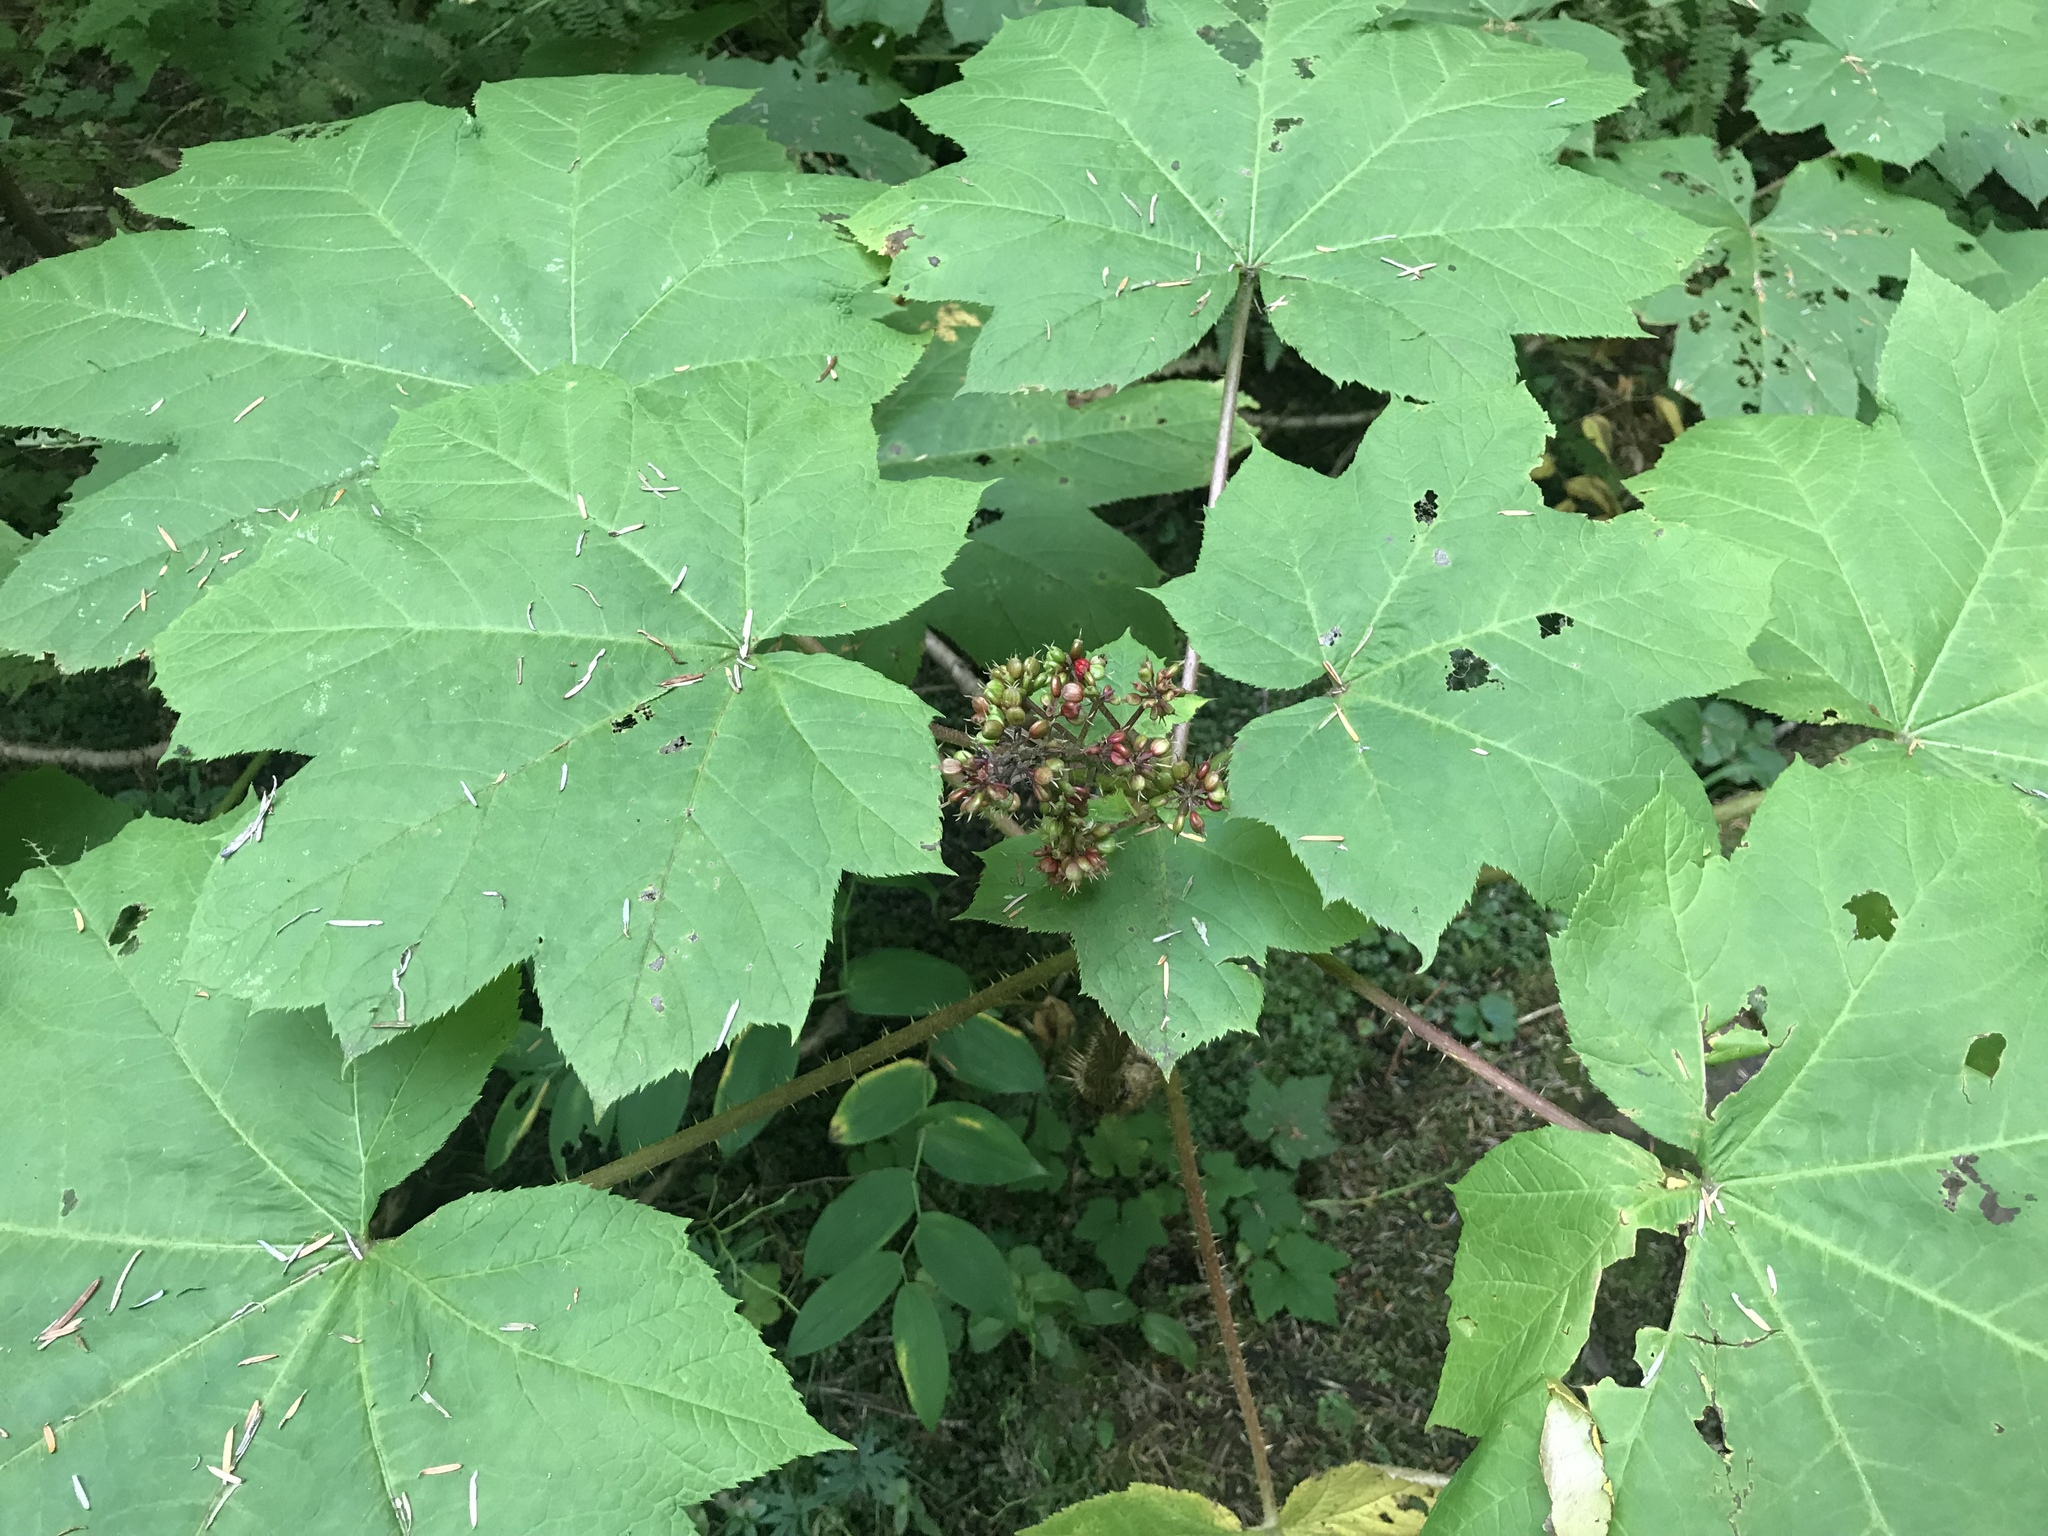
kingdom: Plantae
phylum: Tracheophyta
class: Magnoliopsida
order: Apiales
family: Araliaceae
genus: Oplopanax
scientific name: Oplopanax horridus
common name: Devil's walking-stick
